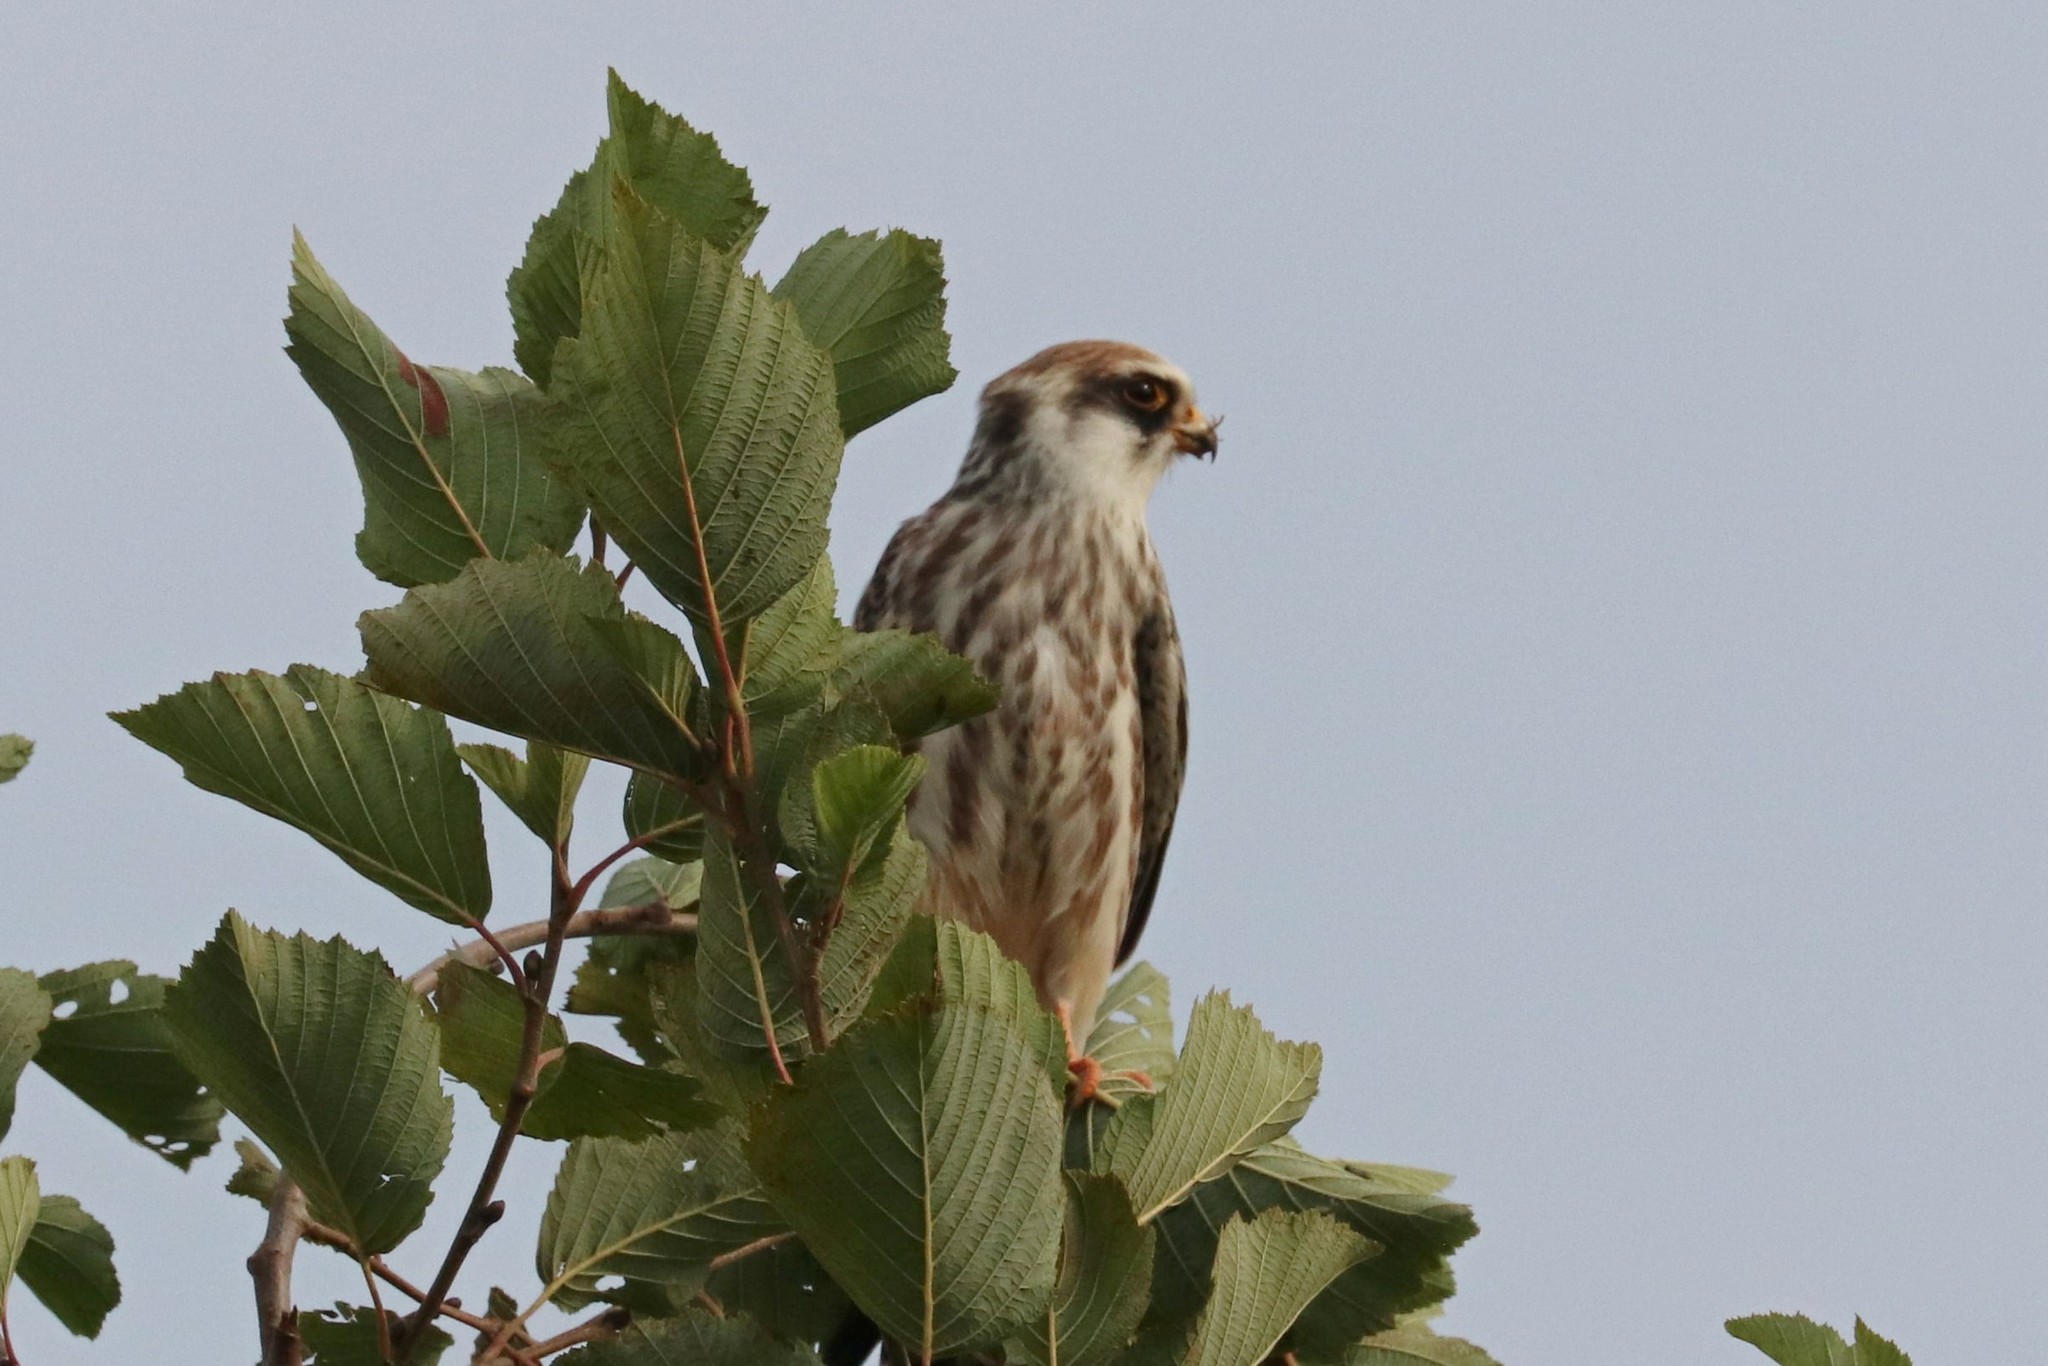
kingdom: Animalia
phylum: Chordata
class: Aves
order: Falconiformes
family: Falconidae
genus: Falco
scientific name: Falco vespertinus
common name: Red-footed falcon
